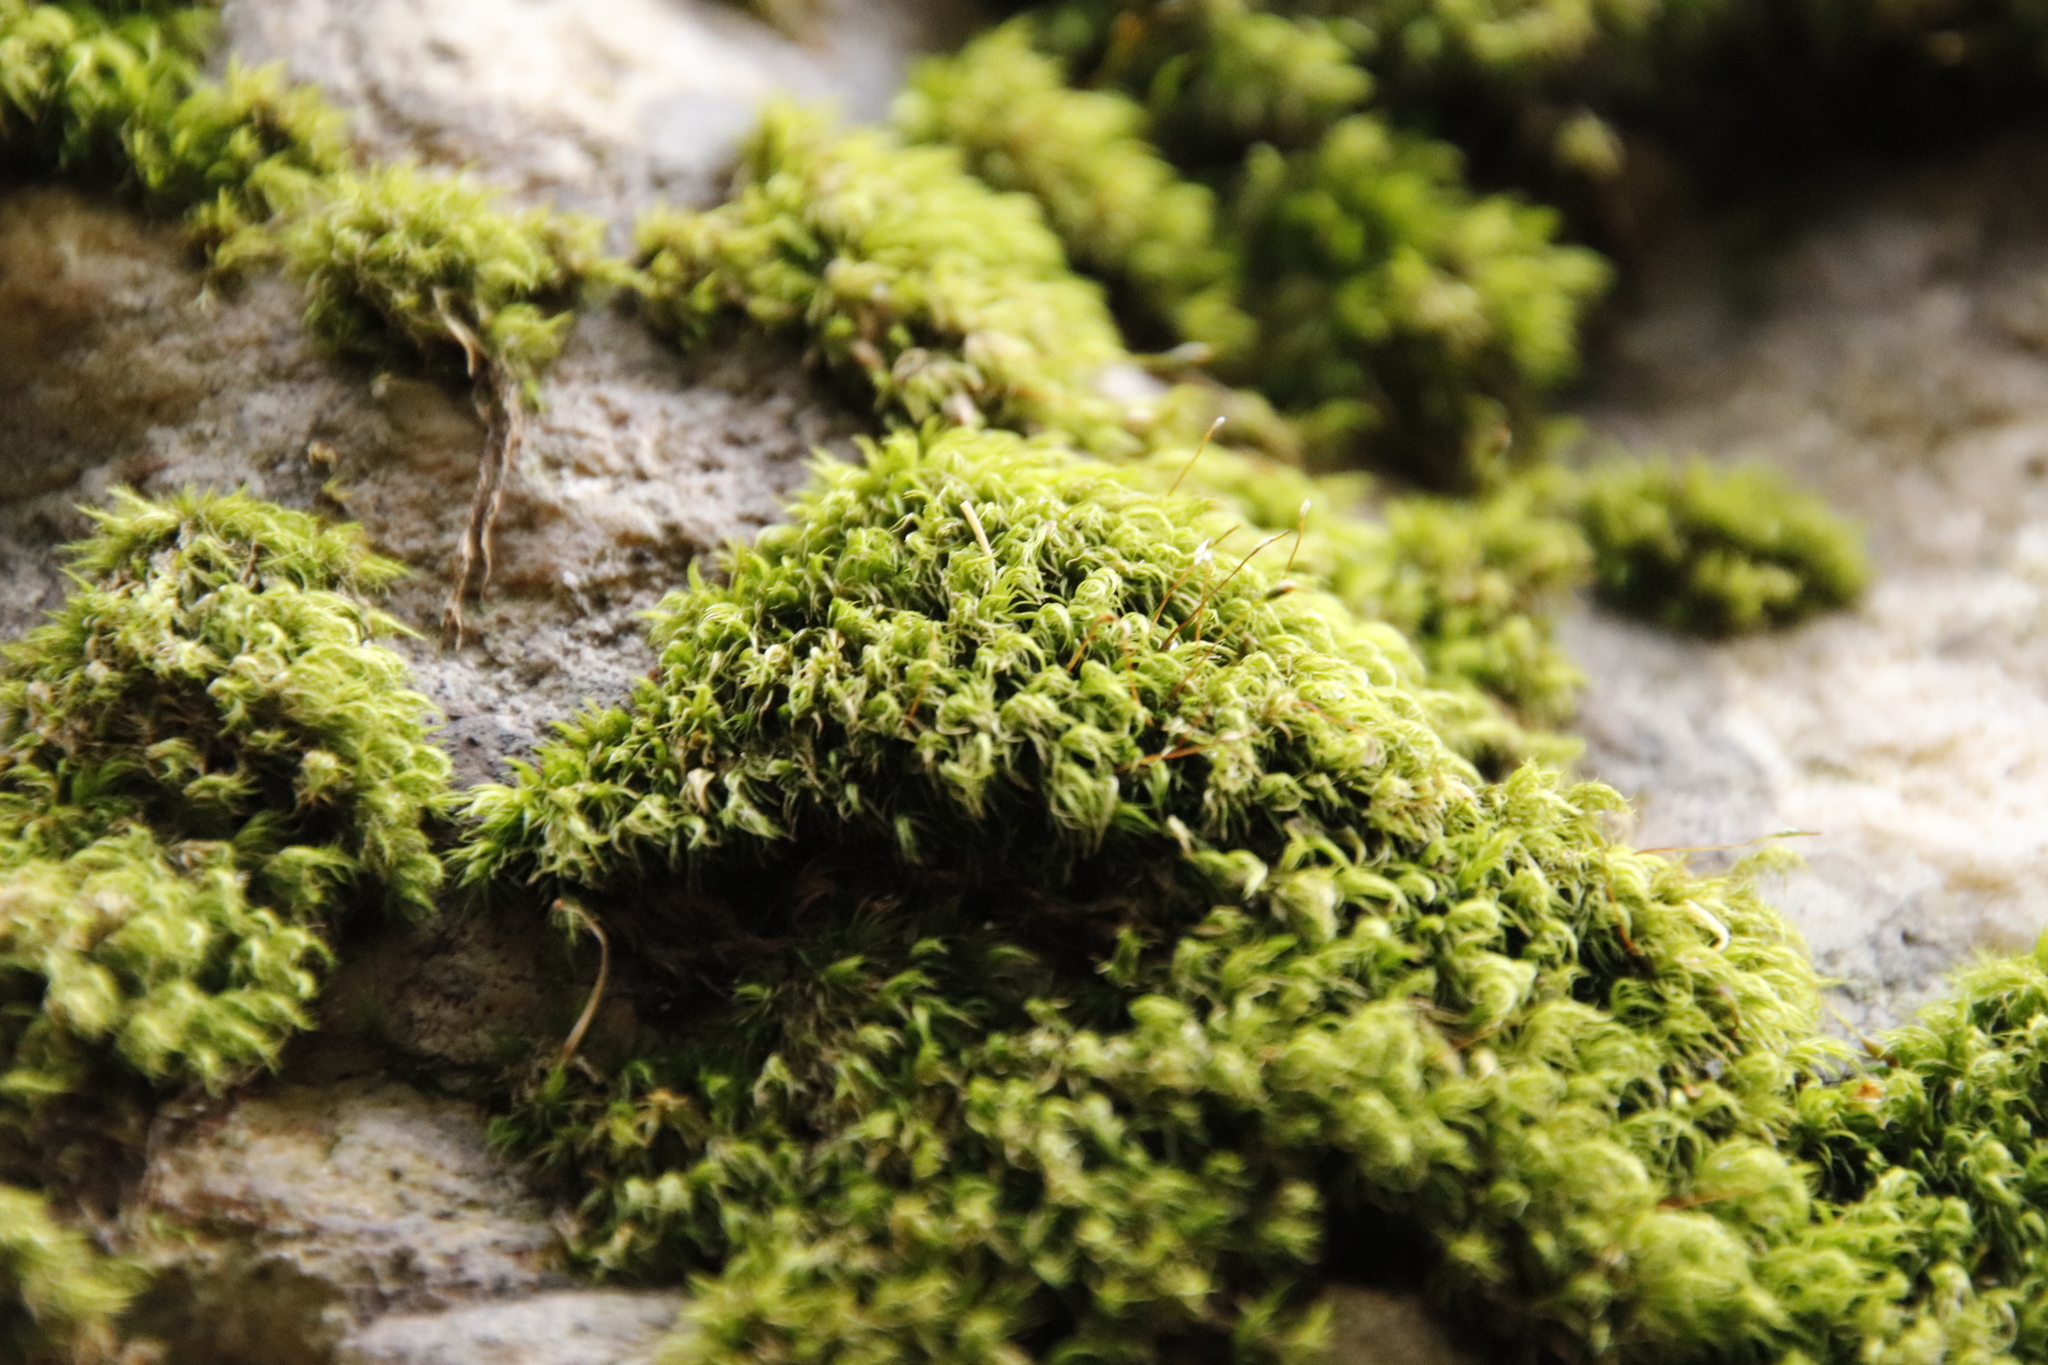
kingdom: Plantae
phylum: Bryophyta
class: Bryopsida
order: Dicranales
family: Dicranaceae
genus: Leucoloma
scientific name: Leucoloma sprengelianum
